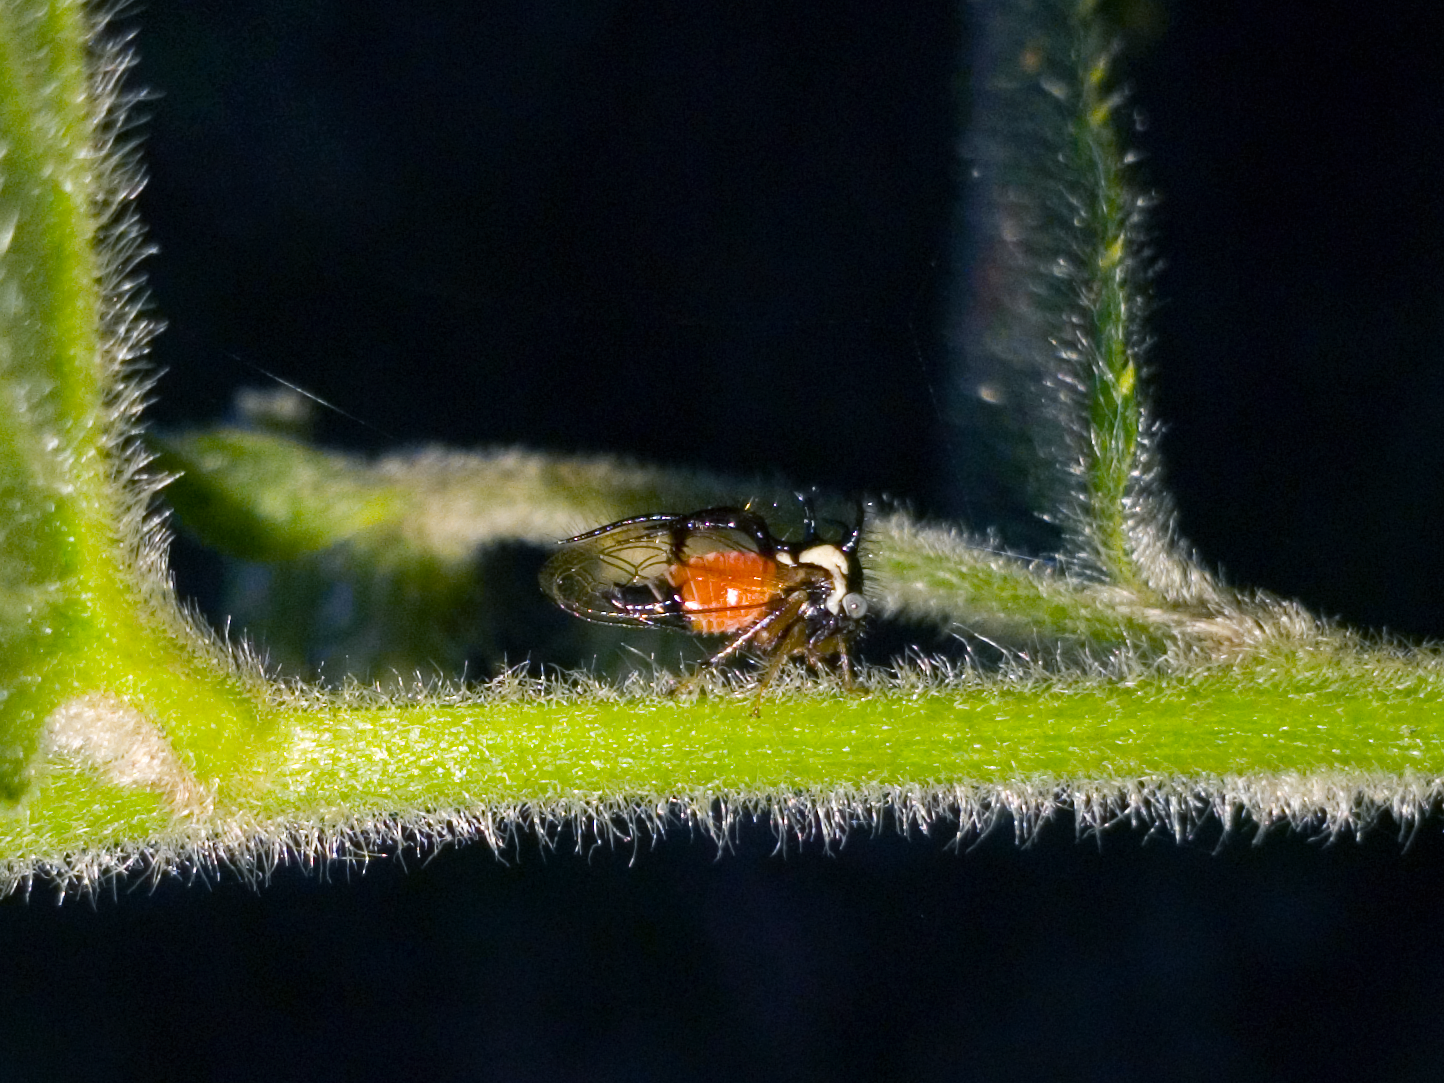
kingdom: Animalia
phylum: Arthropoda
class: Insecta
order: Hemiptera
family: Membracidae
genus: Cyphonia
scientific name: Cyphonia trifida
